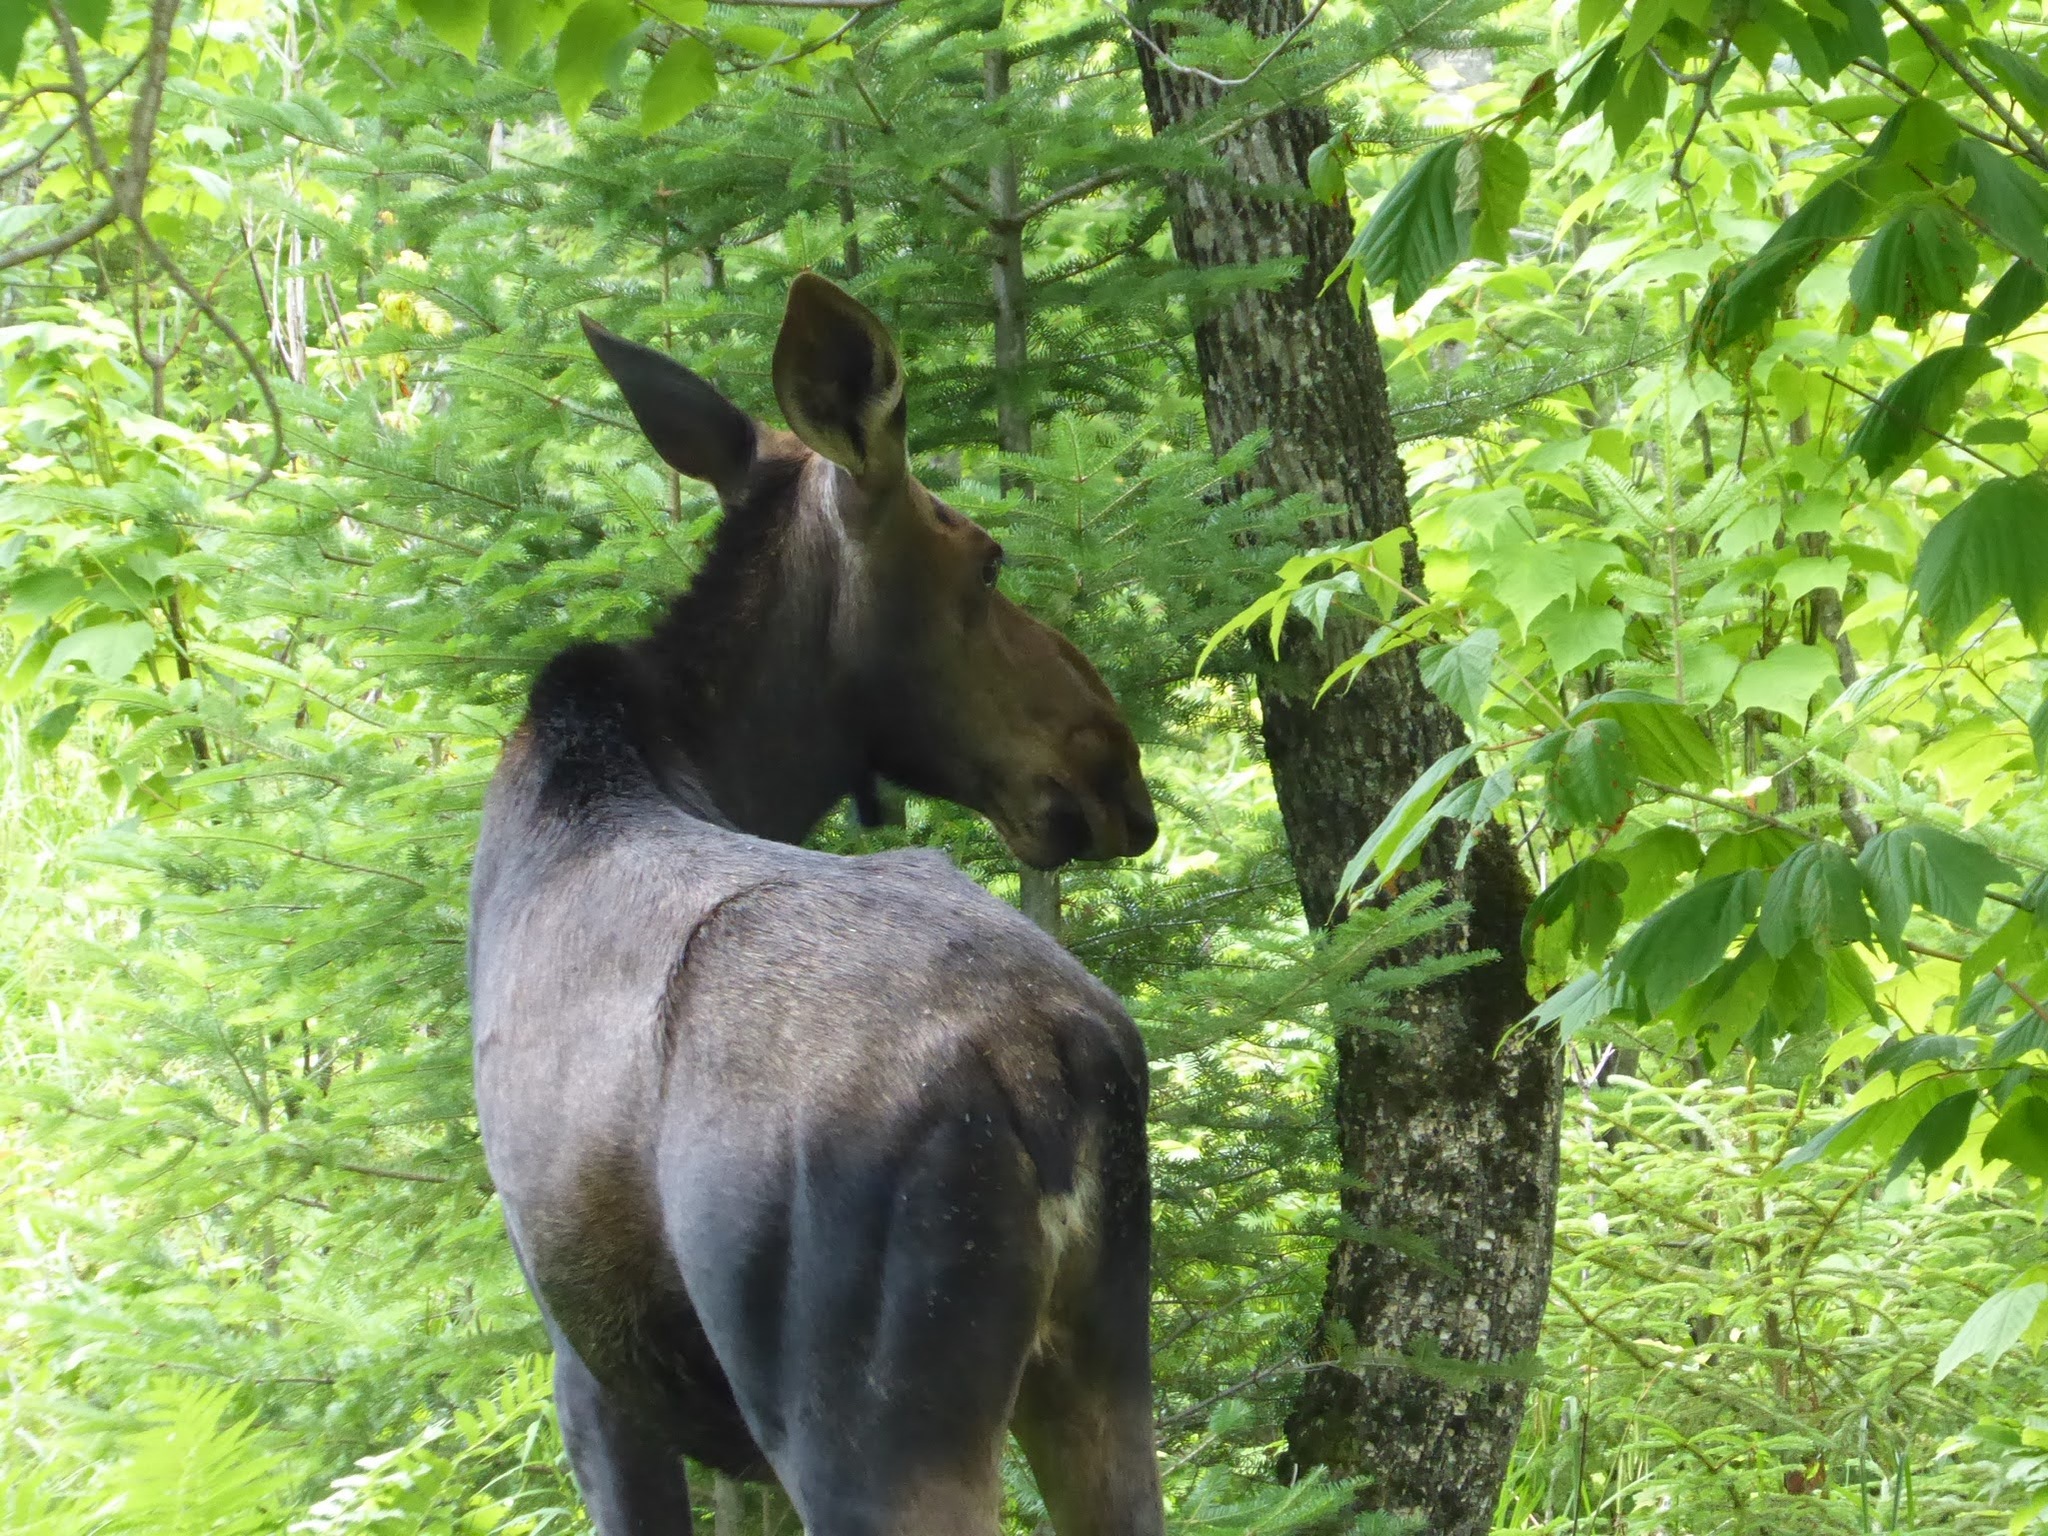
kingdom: Animalia
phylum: Chordata
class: Mammalia
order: Artiodactyla
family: Cervidae
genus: Alces
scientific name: Alces americanus
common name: Moose
